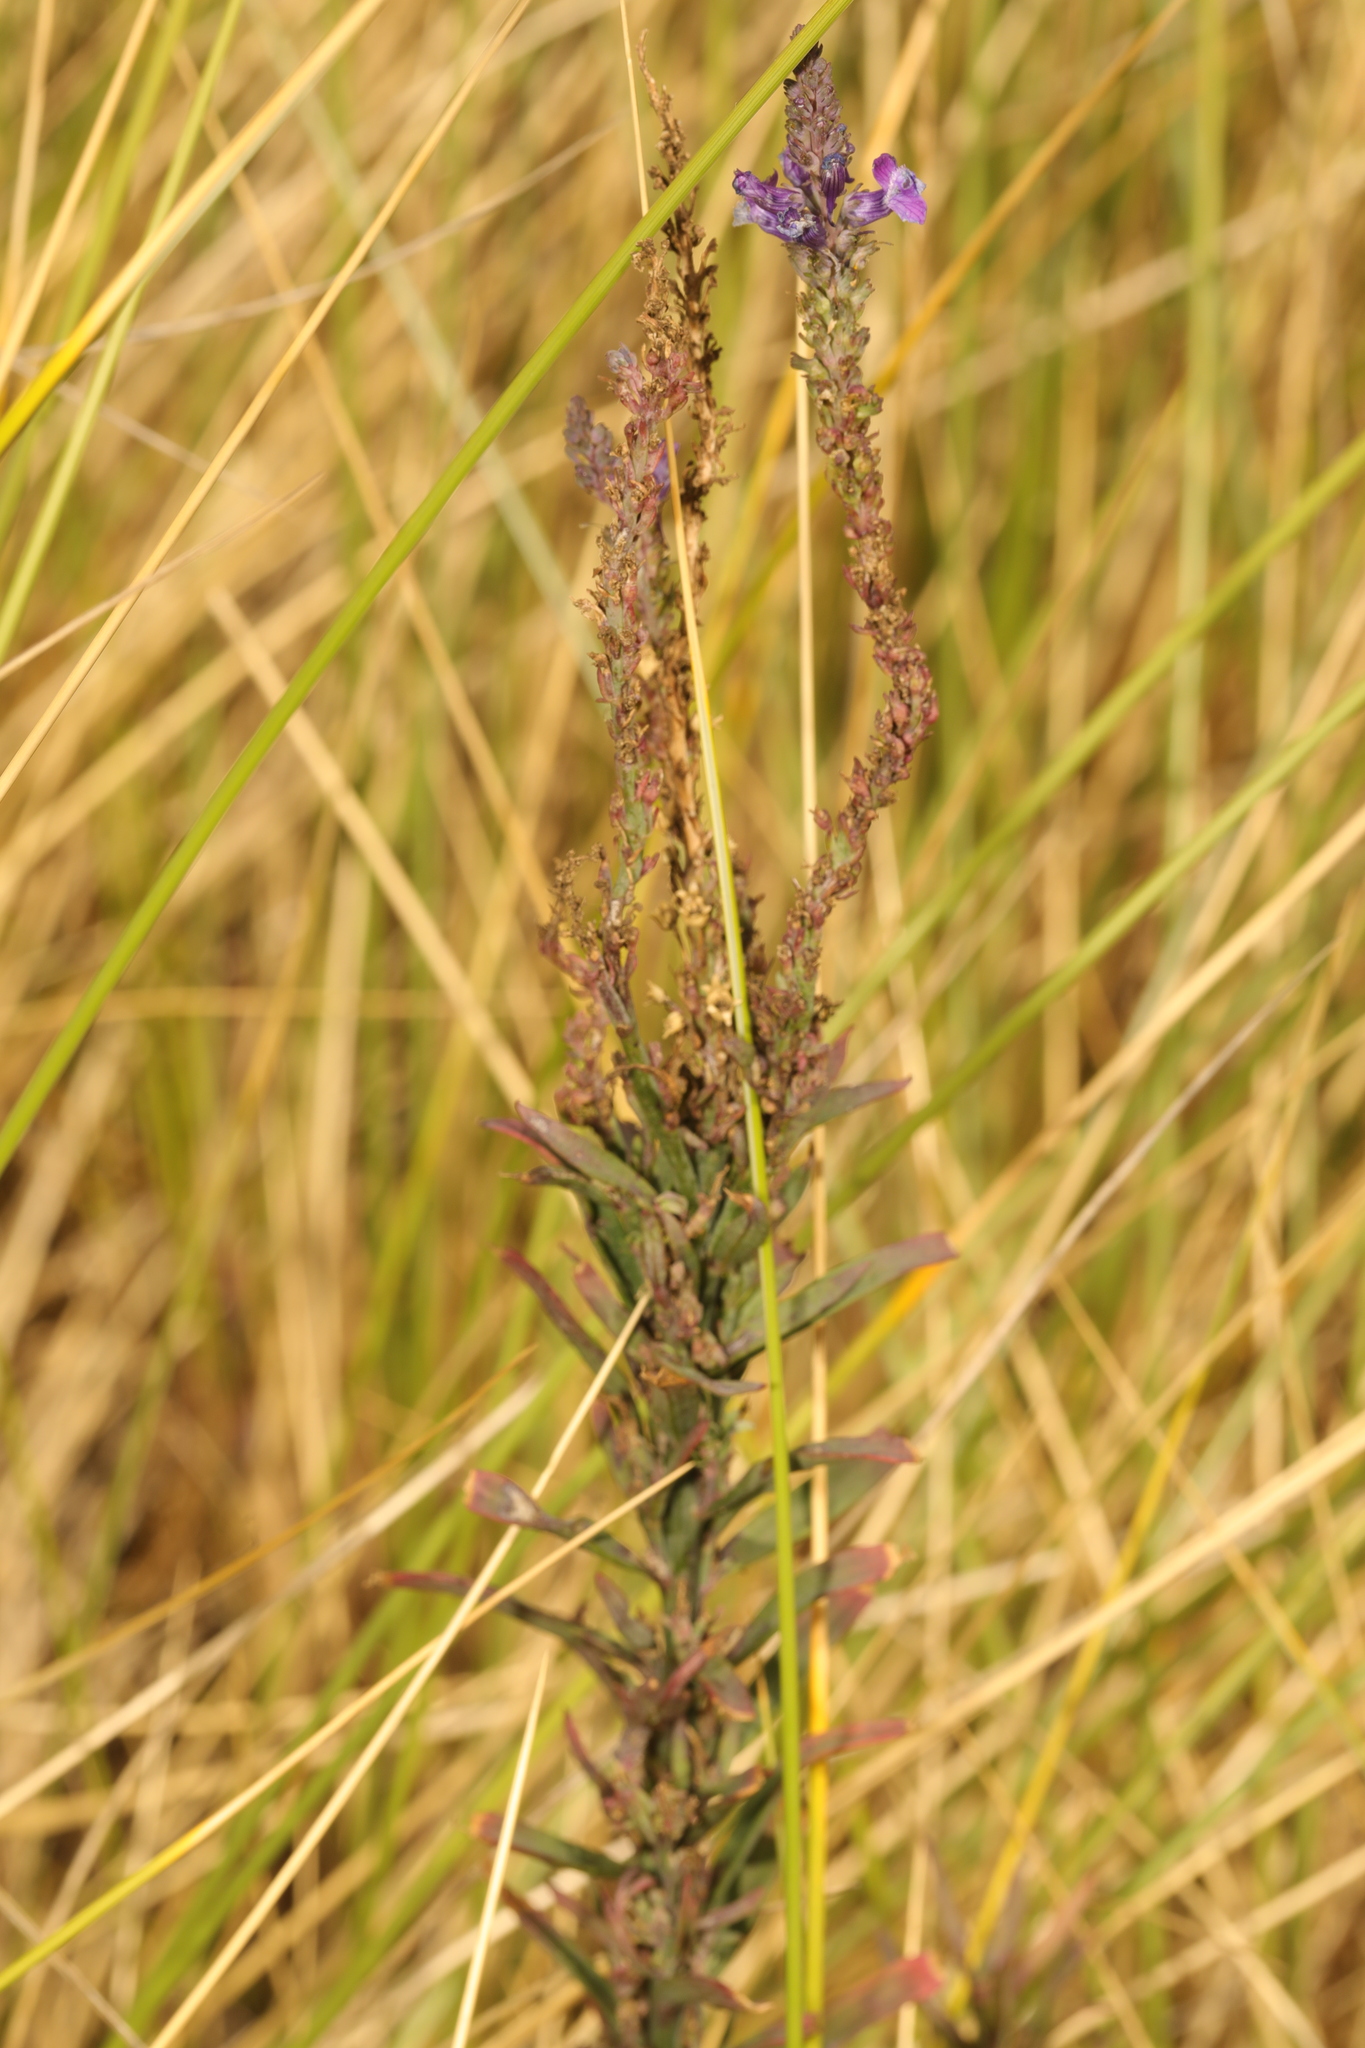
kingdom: Plantae
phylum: Tracheophyta
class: Magnoliopsida
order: Lamiales
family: Plantaginaceae
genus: Linaria
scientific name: Linaria purpurea
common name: Purple toadflax
